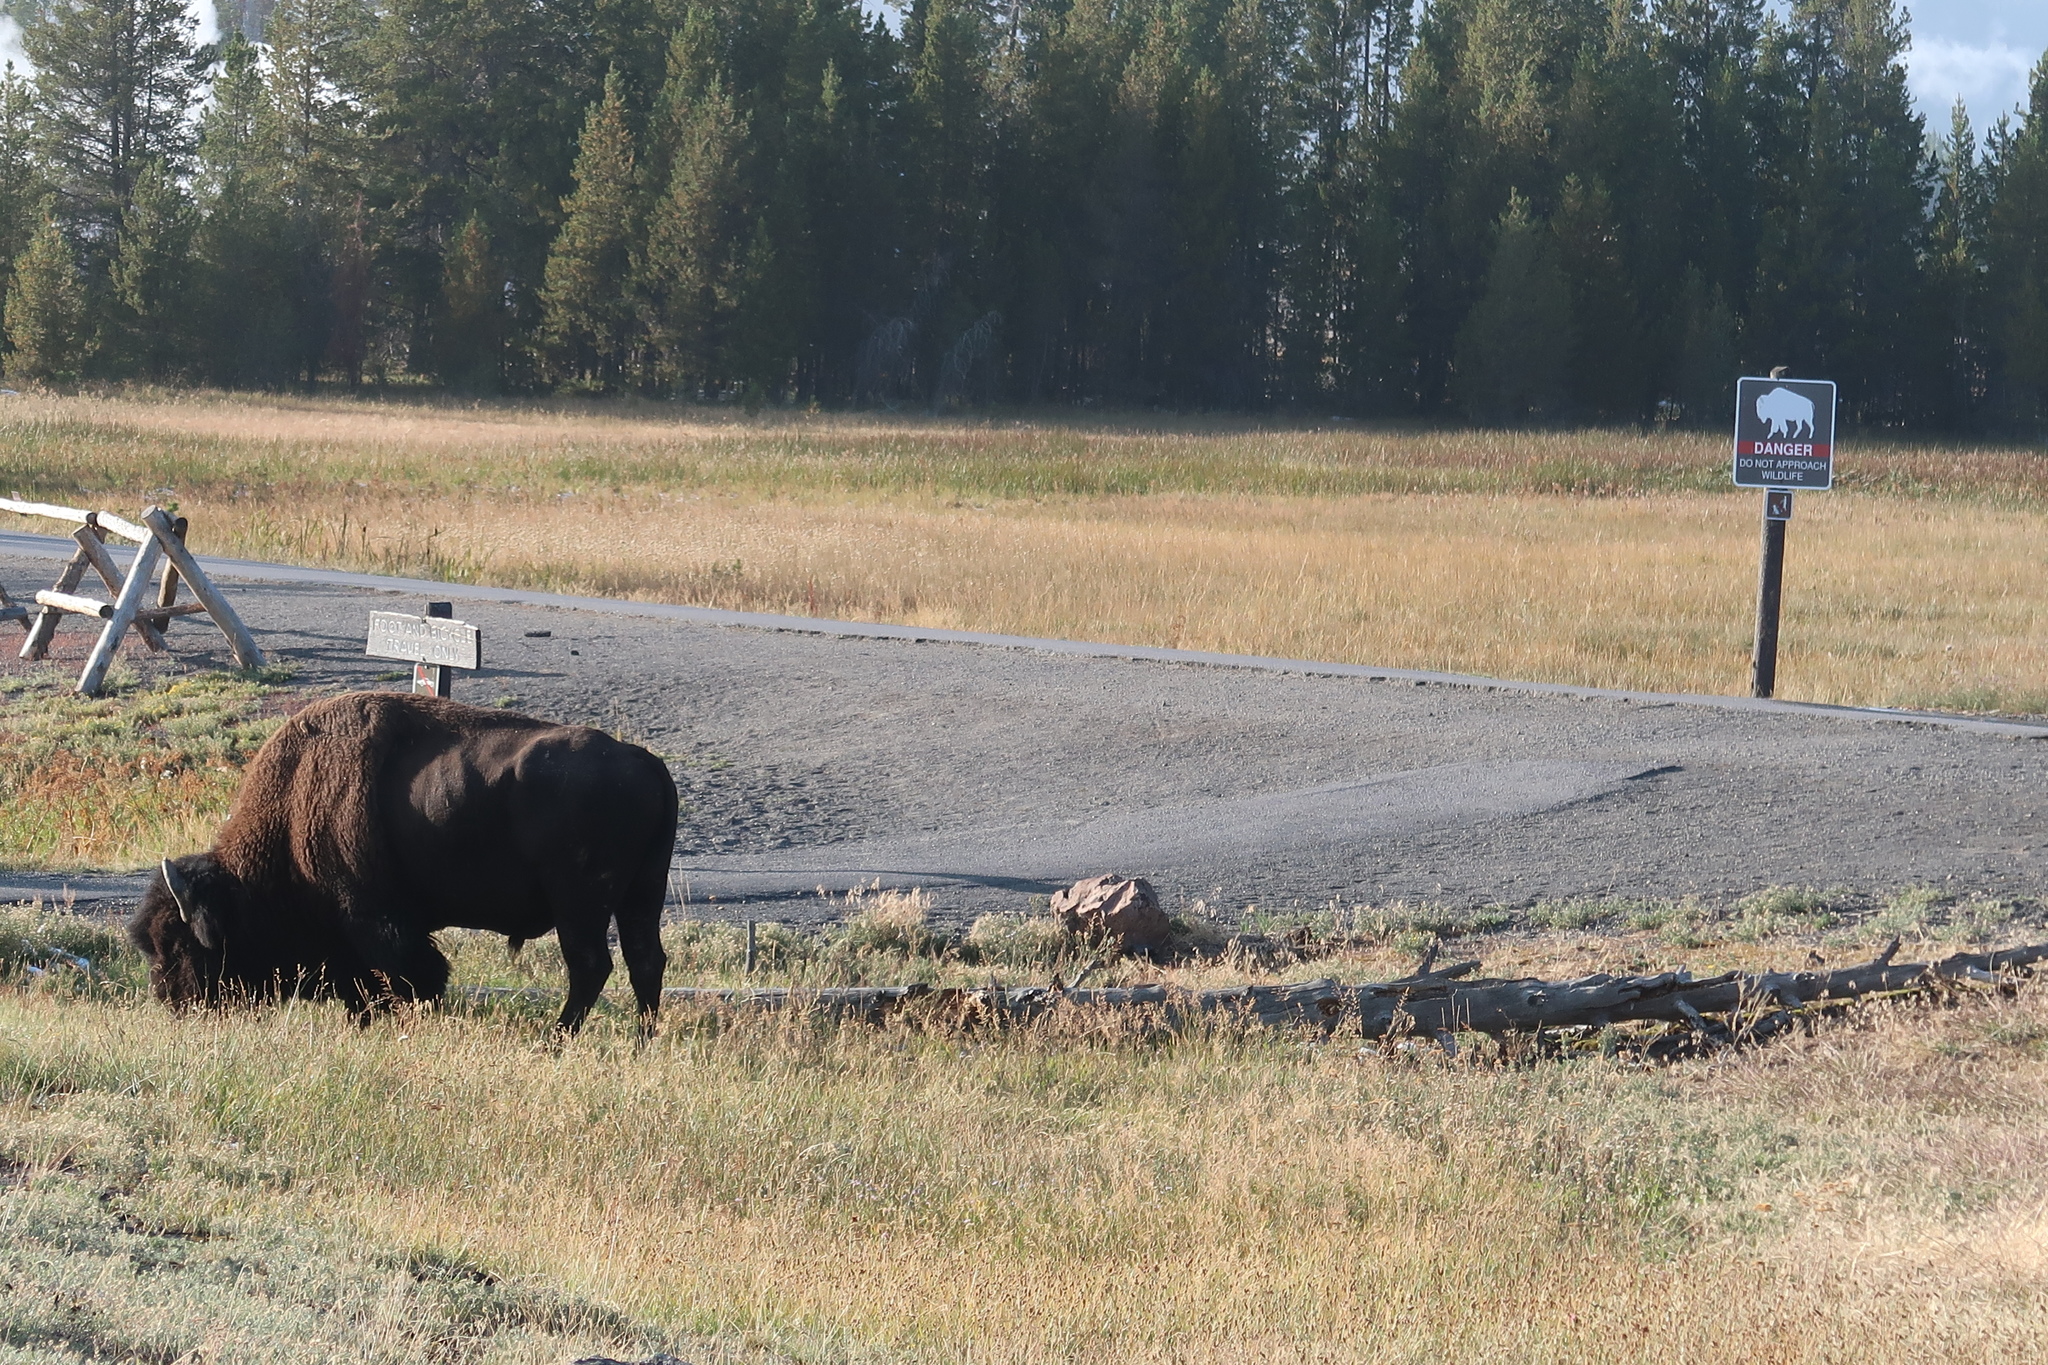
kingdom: Animalia
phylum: Chordata
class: Mammalia
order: Artiodactyla
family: Bovidae
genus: Bison
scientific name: Bison bison
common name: American bison
